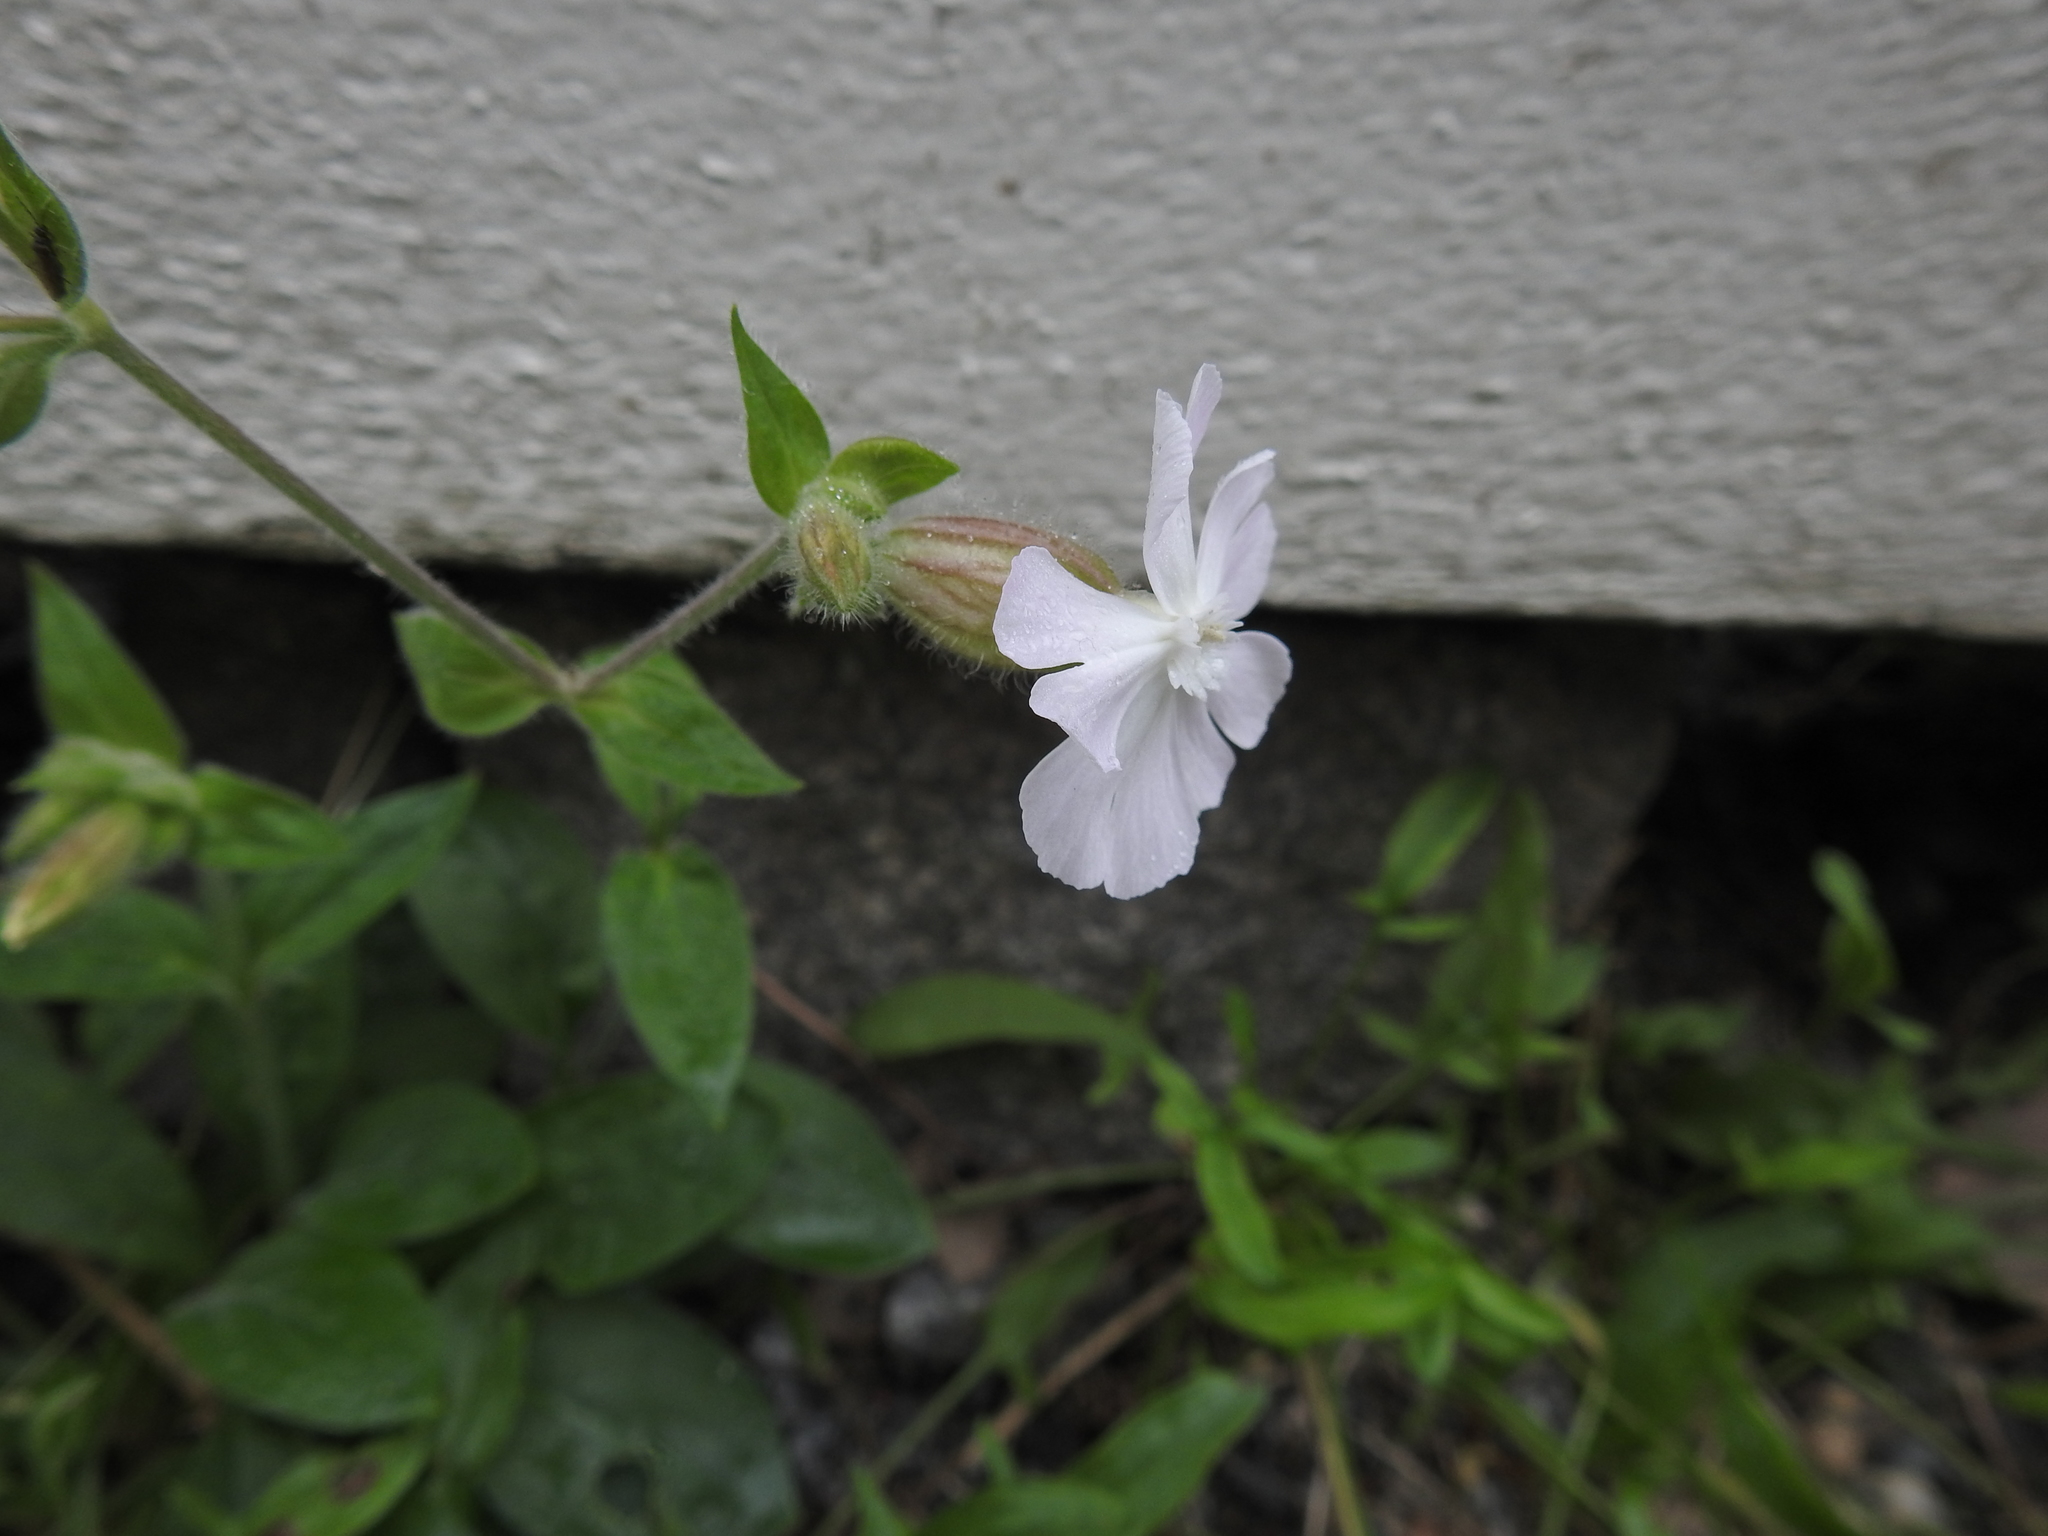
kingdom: Plantae
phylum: Tracheophyta
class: Magnoliopsida
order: Caryophyllales
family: Caryophyllaceae
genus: Silene
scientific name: Silene latifolia
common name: White campion
